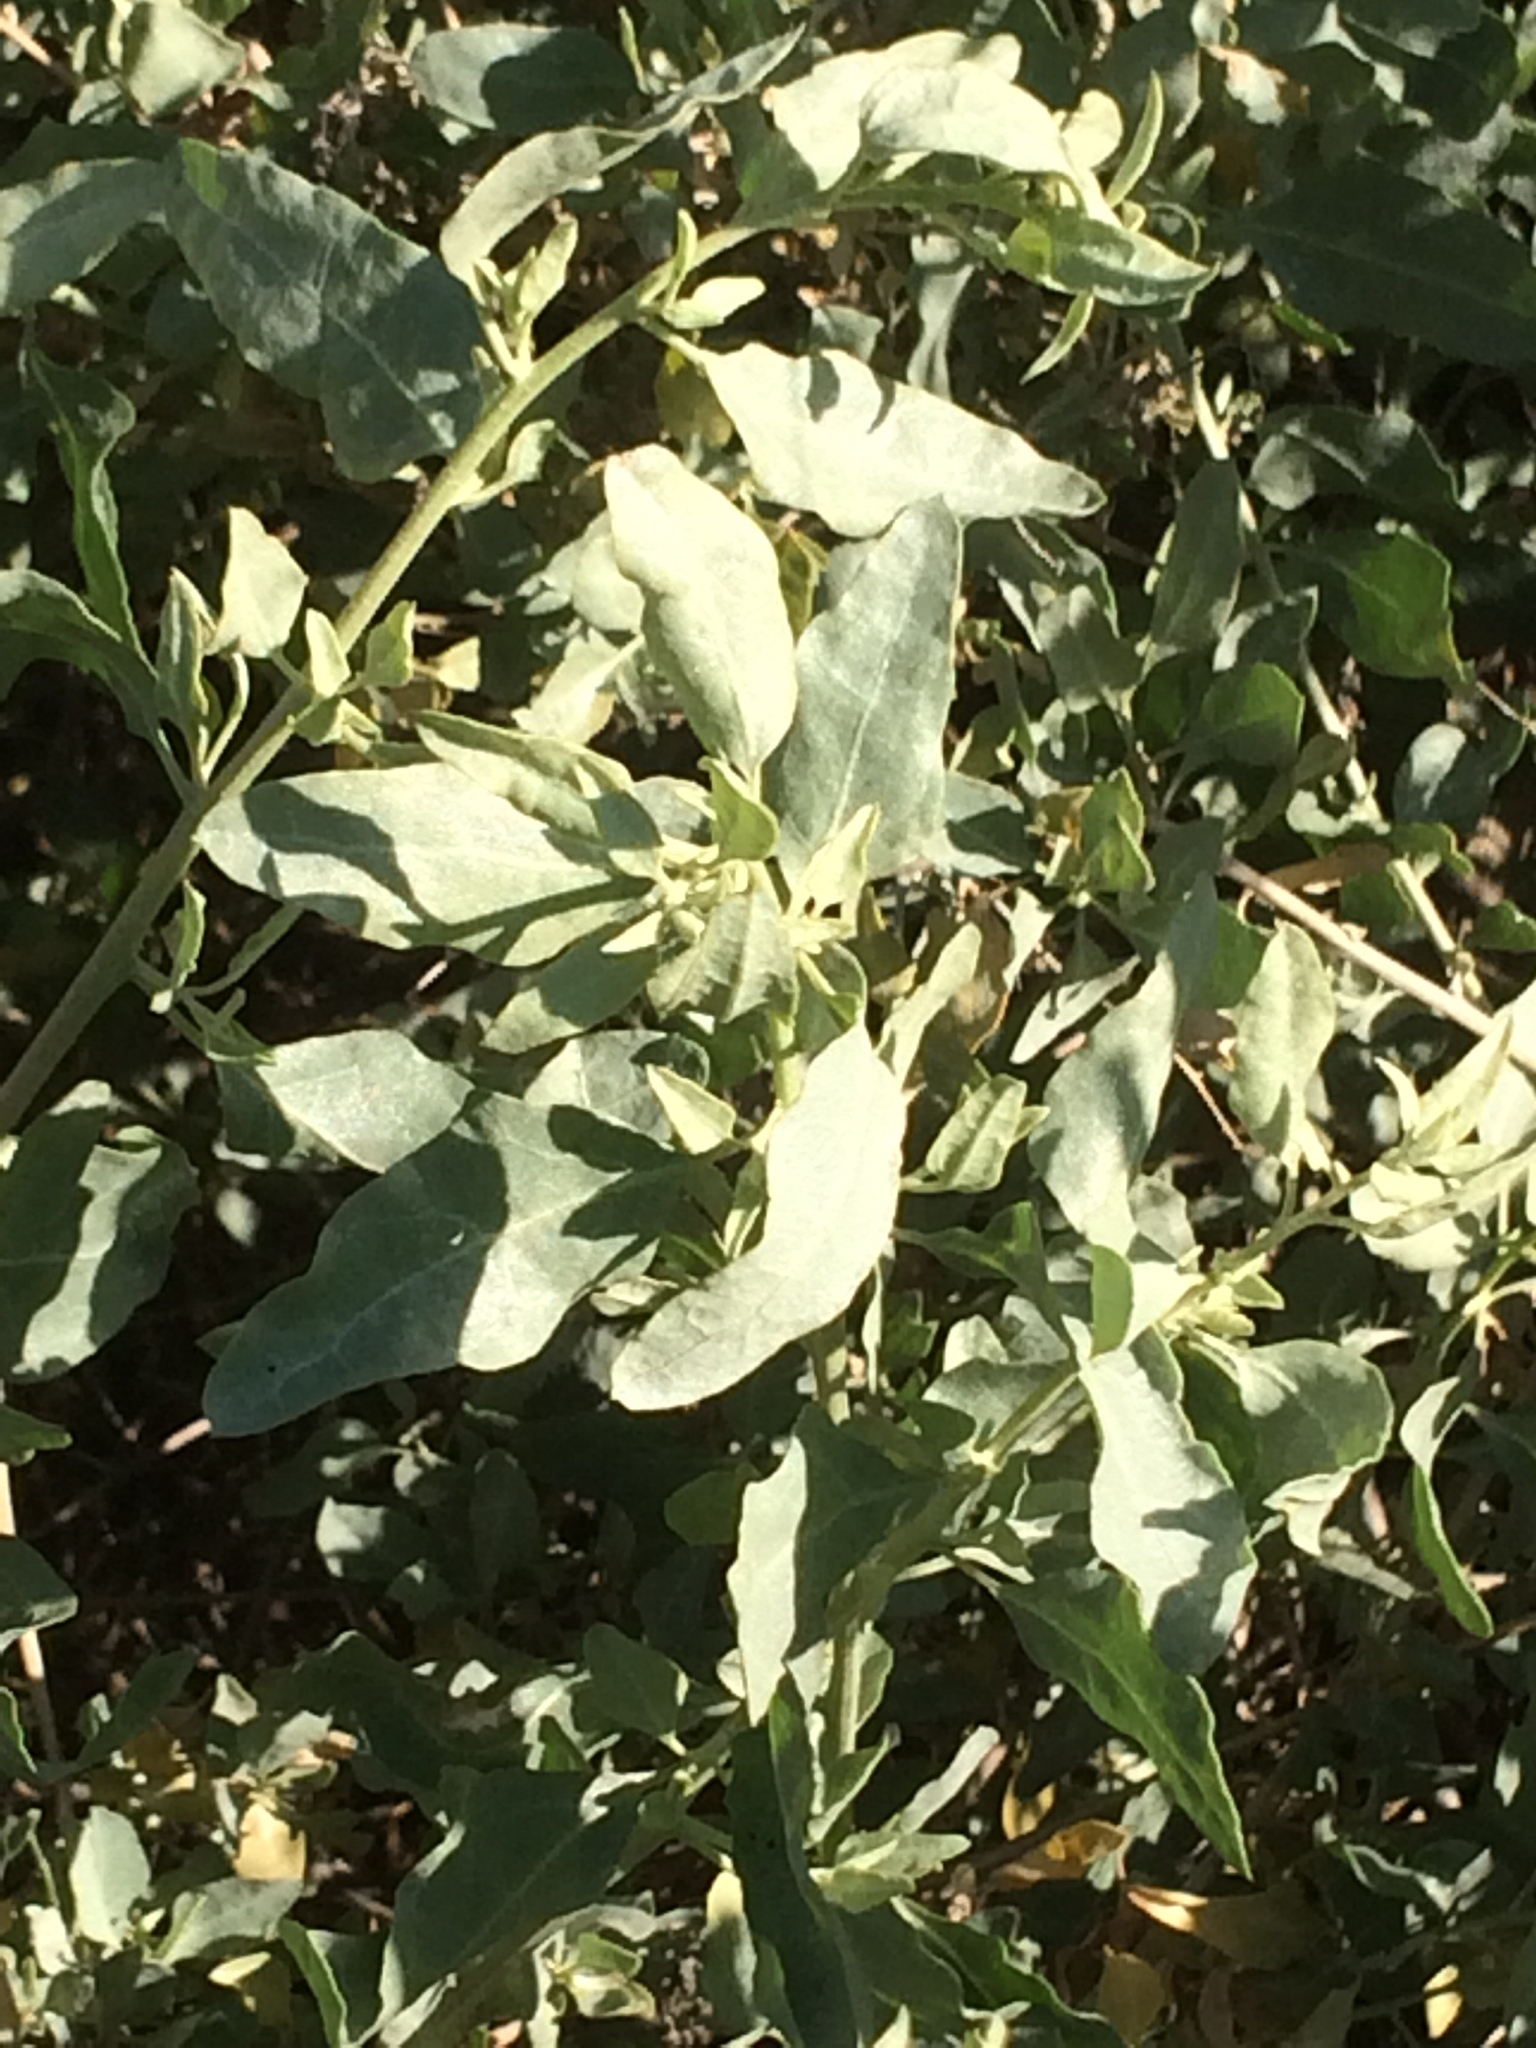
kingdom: Plantae
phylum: Tracheophyta
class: Magnoliopsida
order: Caryophyllales
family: Amaranthaceae
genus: Atriplex
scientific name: Atriplex lentiformis
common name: Big saltbush
